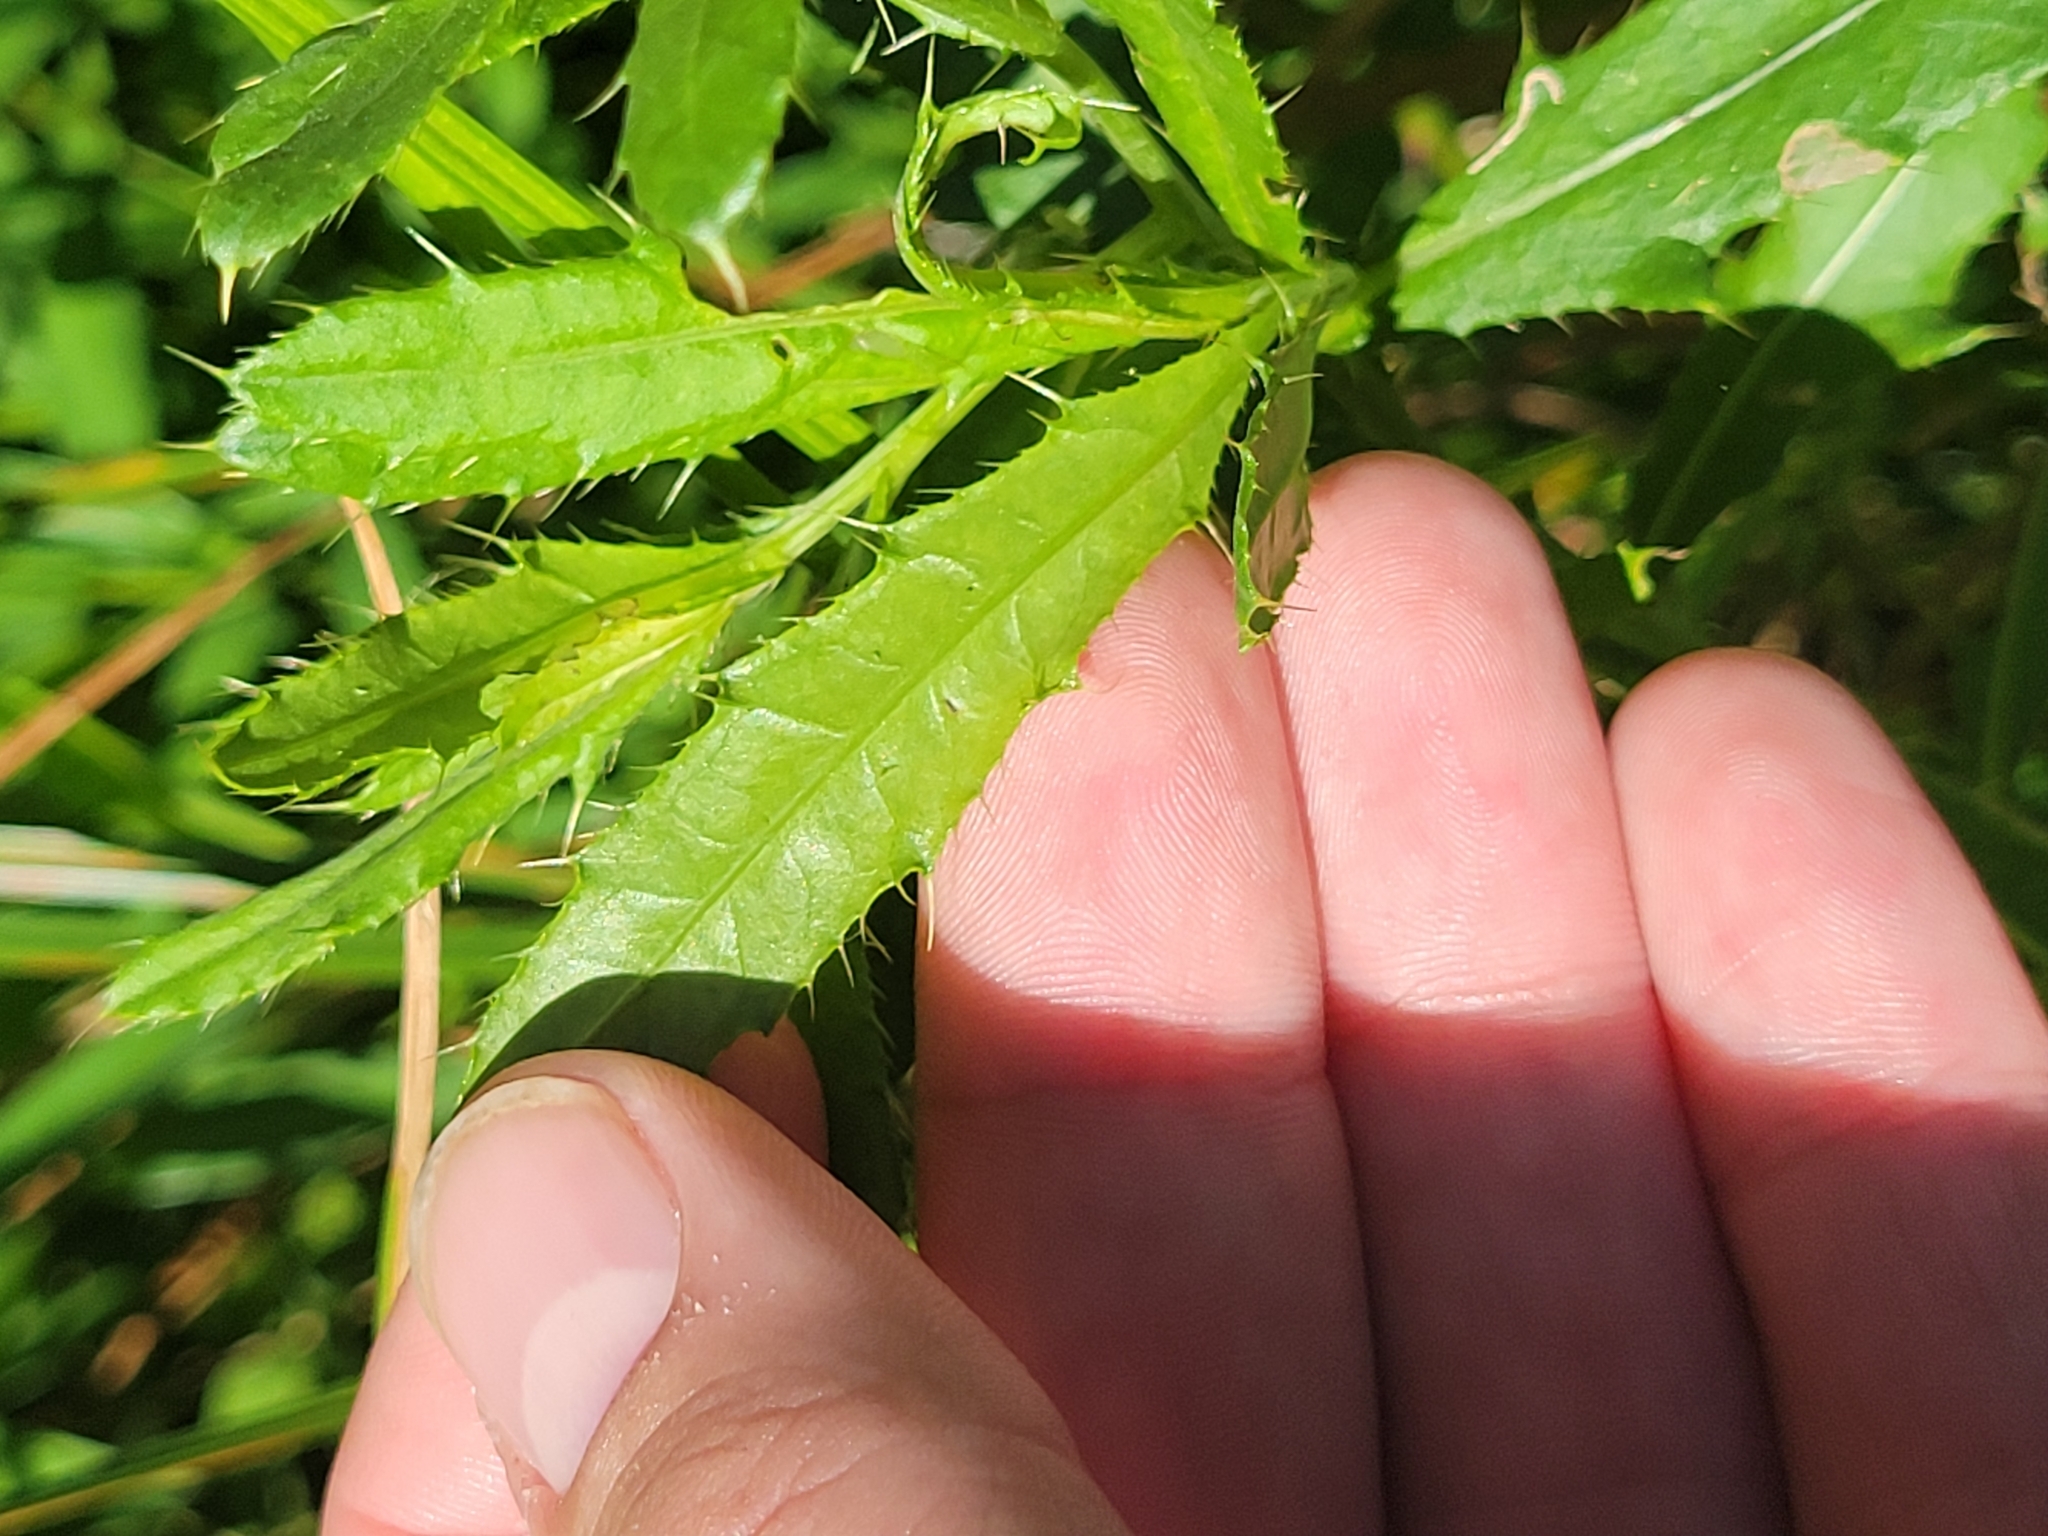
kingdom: Plantae
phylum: Tracheophyta
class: Magnoliopsida
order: Asterales
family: Asteraceae
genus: Cirsium
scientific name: Cirsium arvense
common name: Creeping thistle
